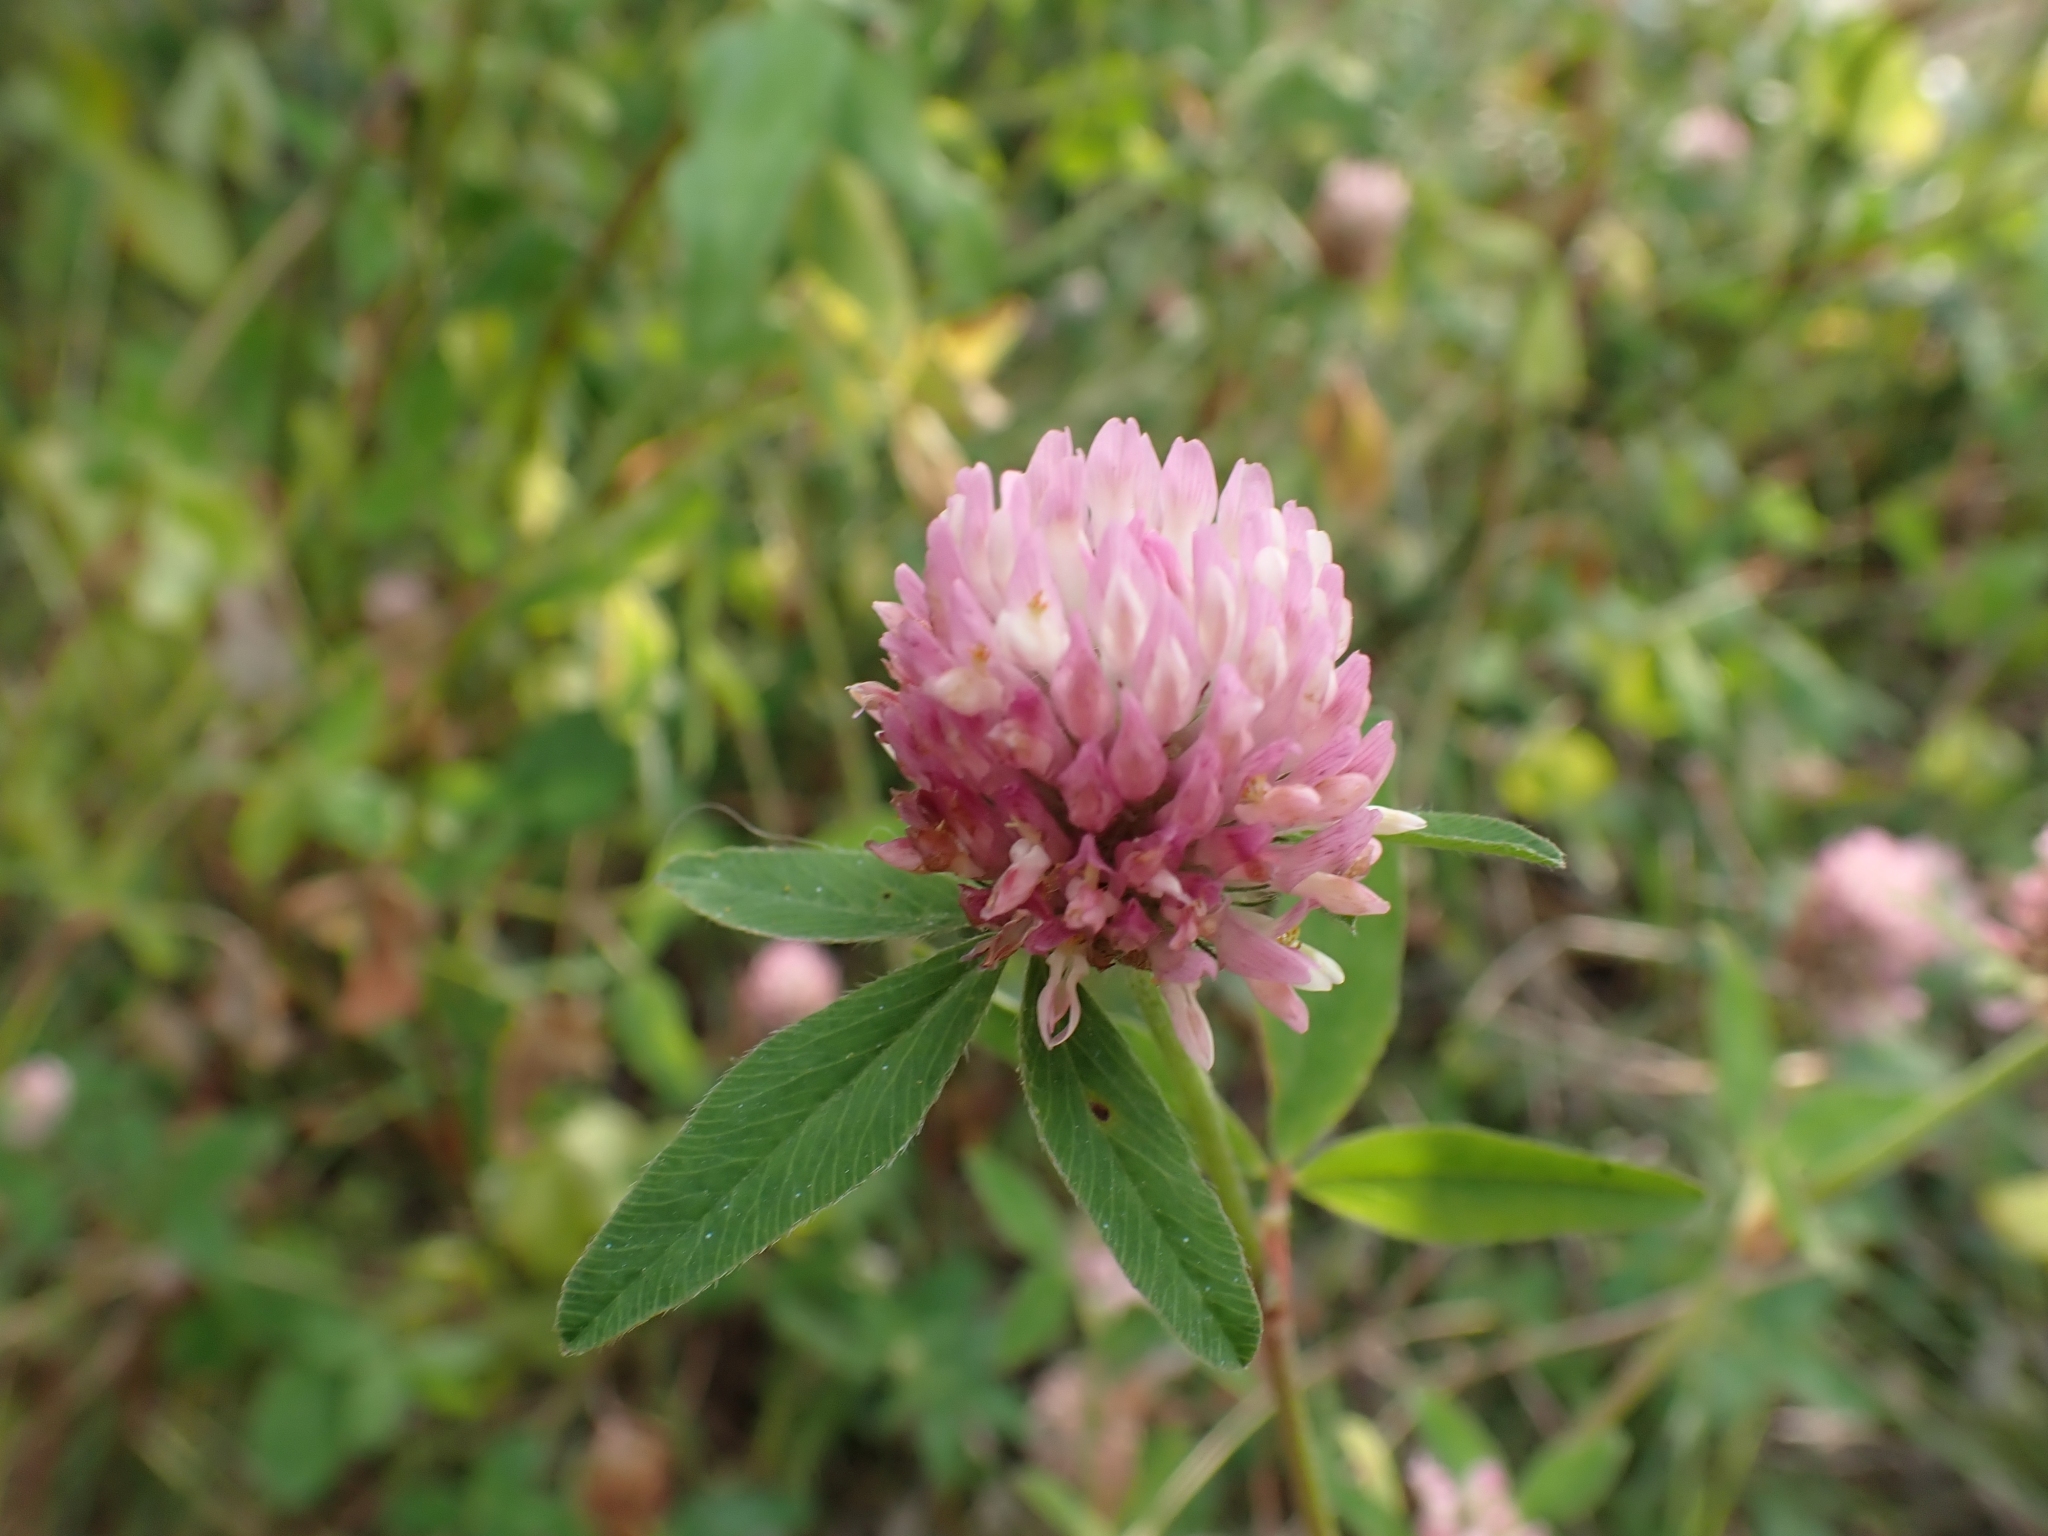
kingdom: Plantae
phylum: Tracheophyta
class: Magnoliopsida
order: Fabales
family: Fabaceae
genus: Trifolium
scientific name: Trifolium pratense
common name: Red clover
